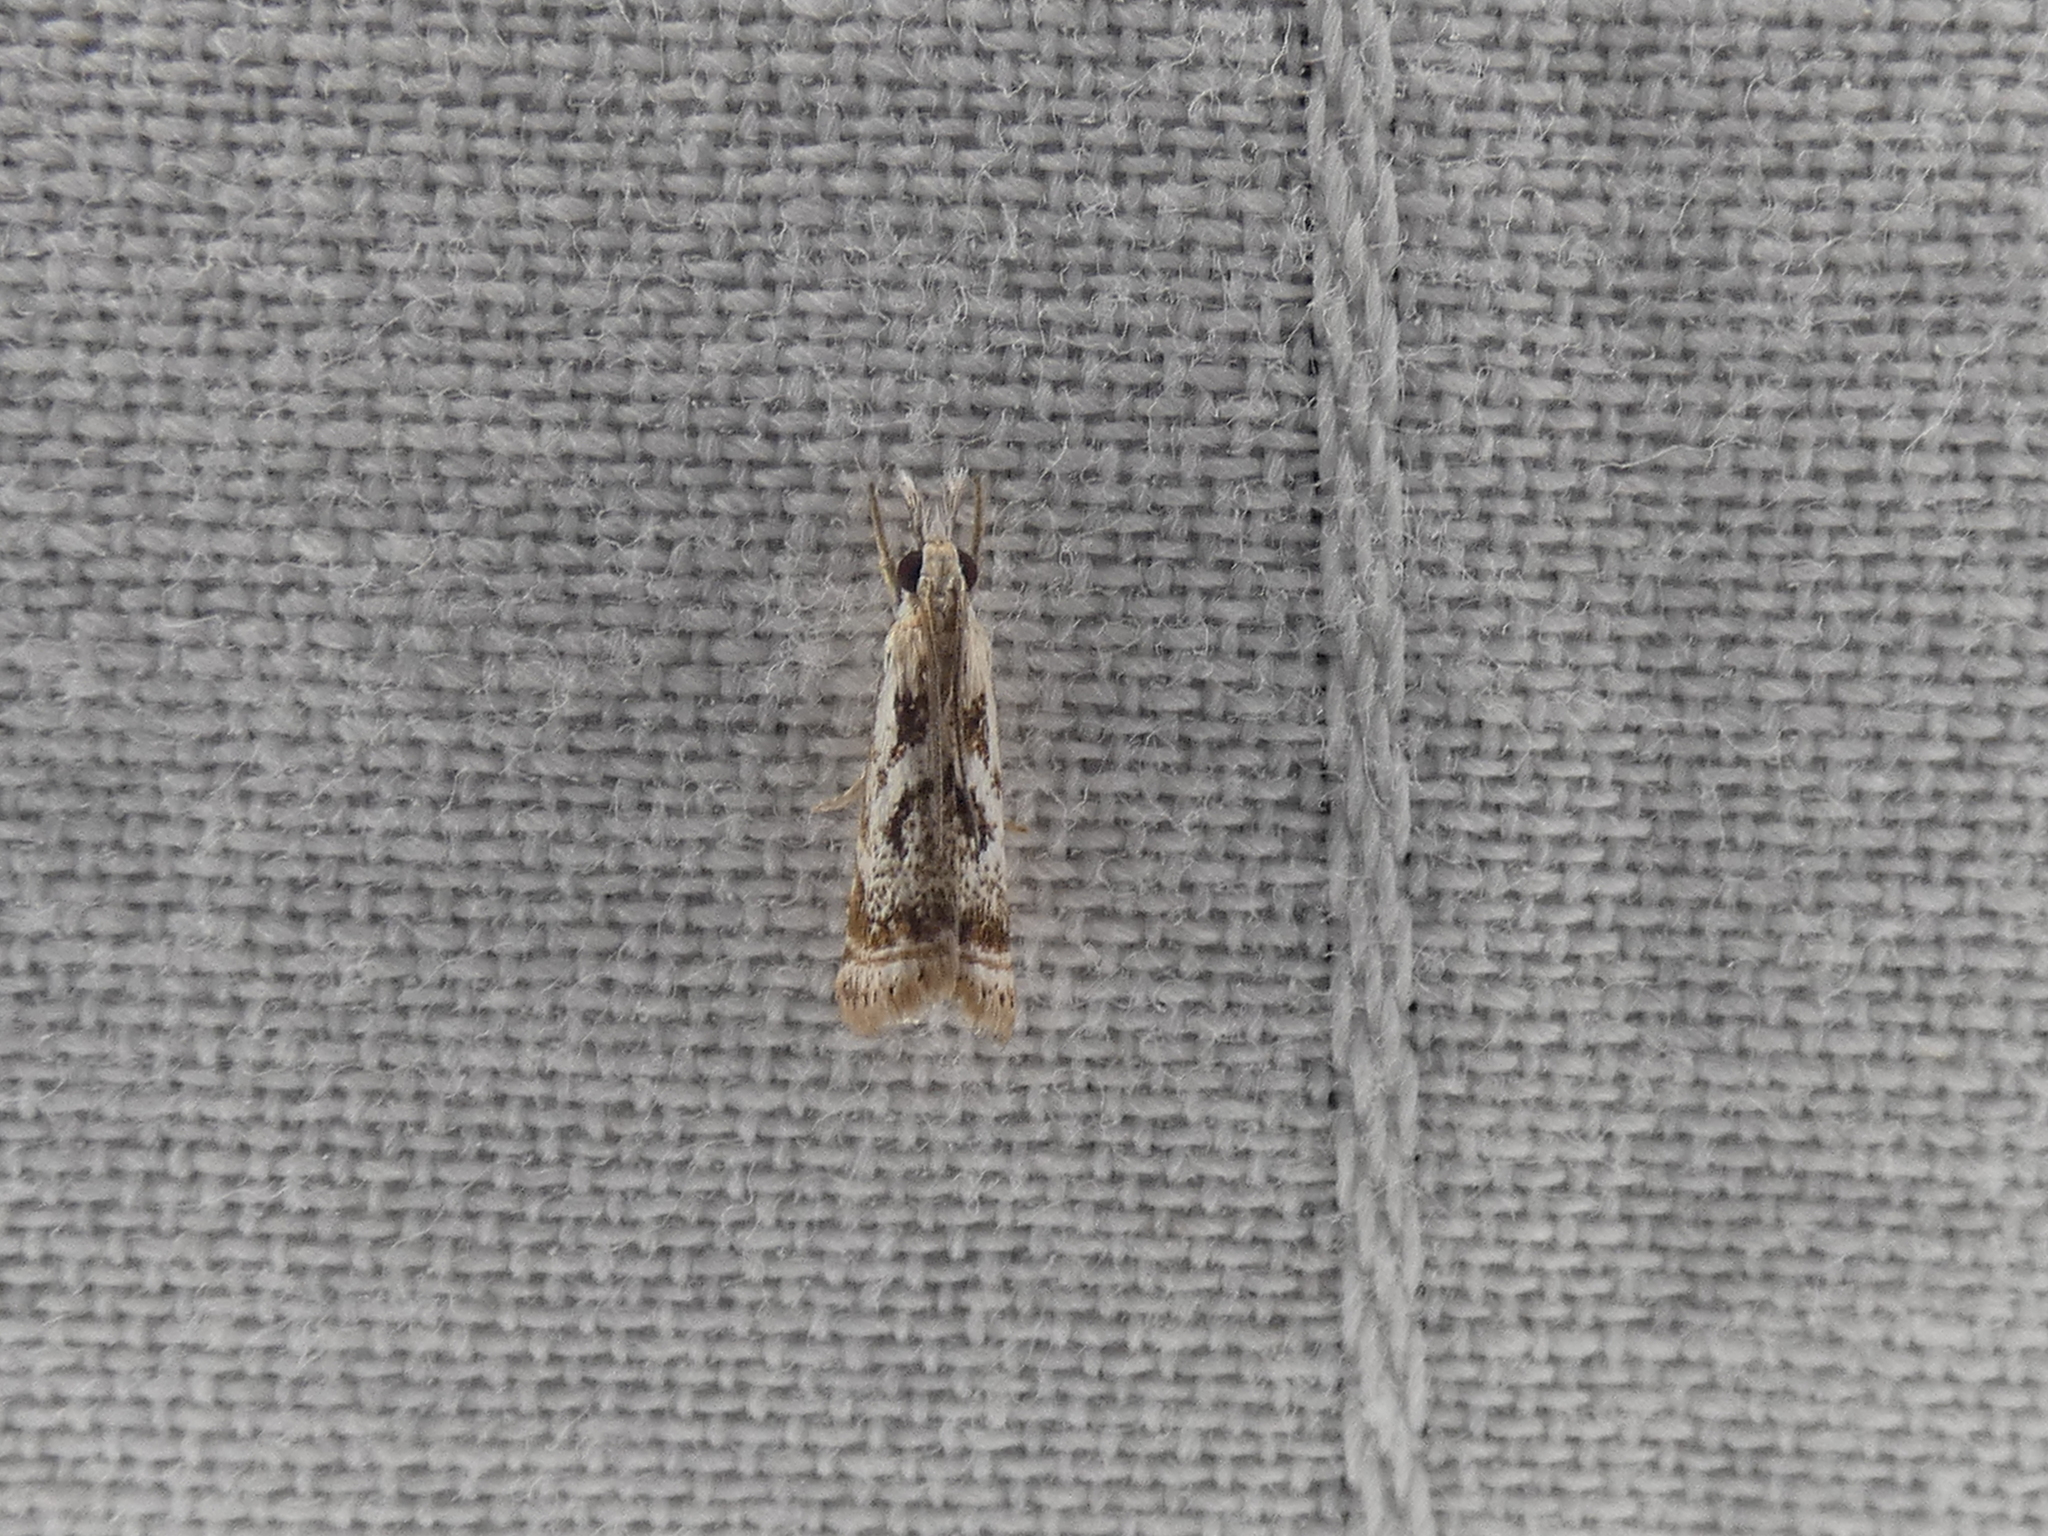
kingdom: Animalia
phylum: Arthropoda
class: Insecta
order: Lepidoptera
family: Crambidae
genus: Microcrambus
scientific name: Microcrambus elegans
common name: Elegant grass-veneer
